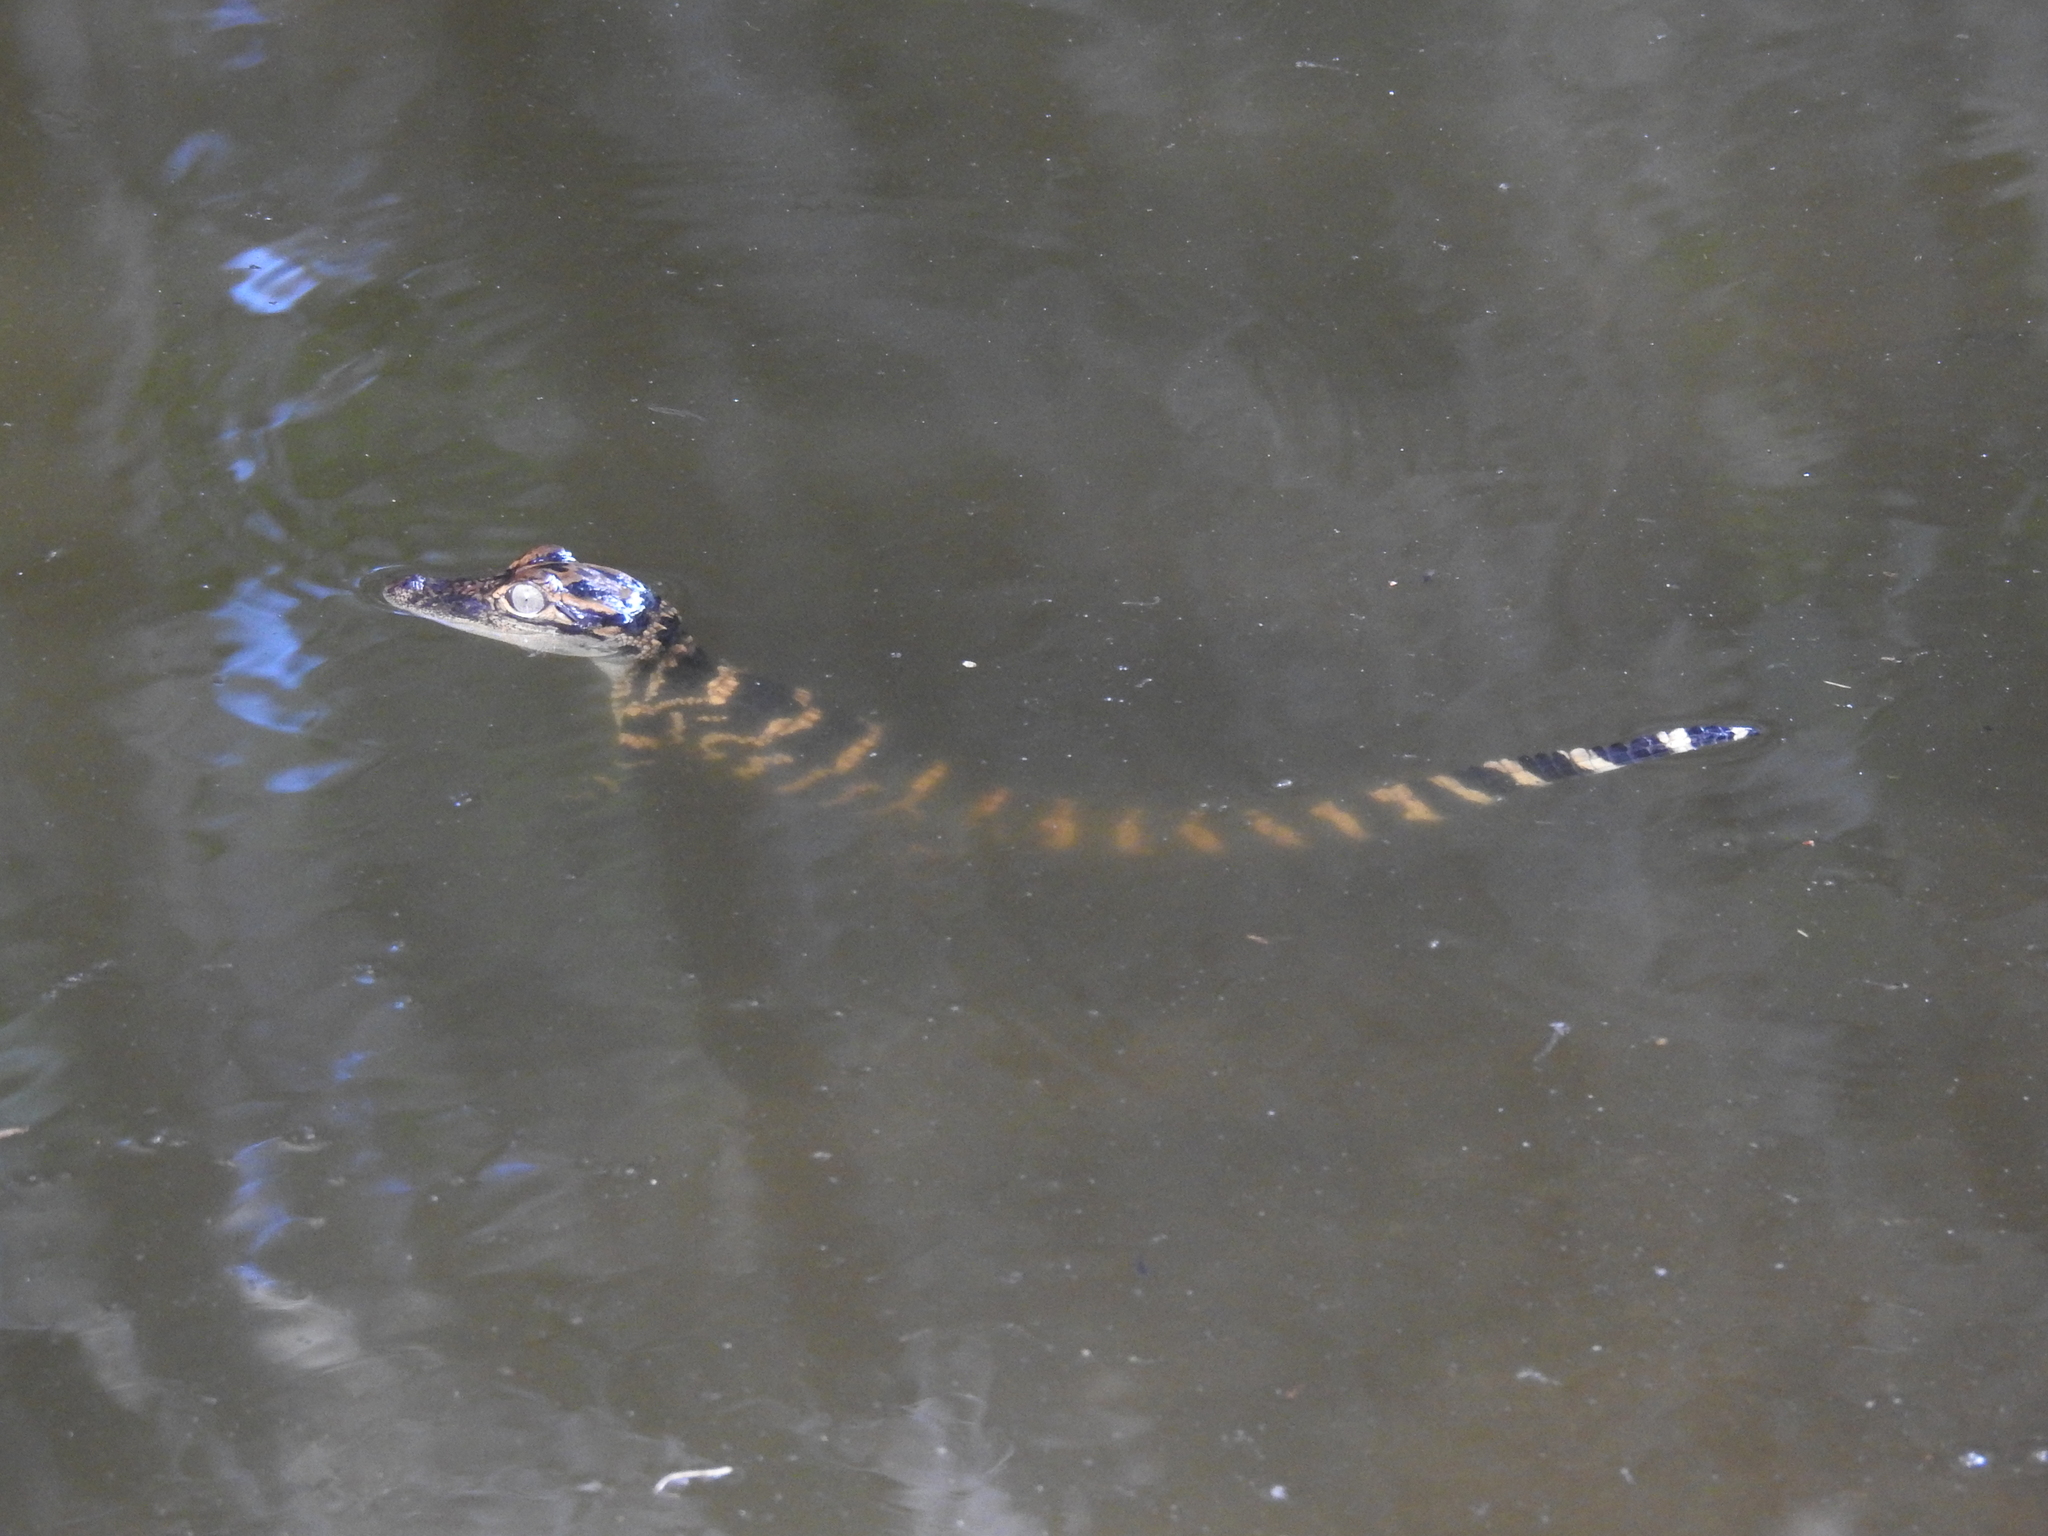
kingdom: Animalia
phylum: Chordata
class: Crocodylia
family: Alligatoridae
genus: Alligator
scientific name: Alligator mississippiensis
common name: American alligator
